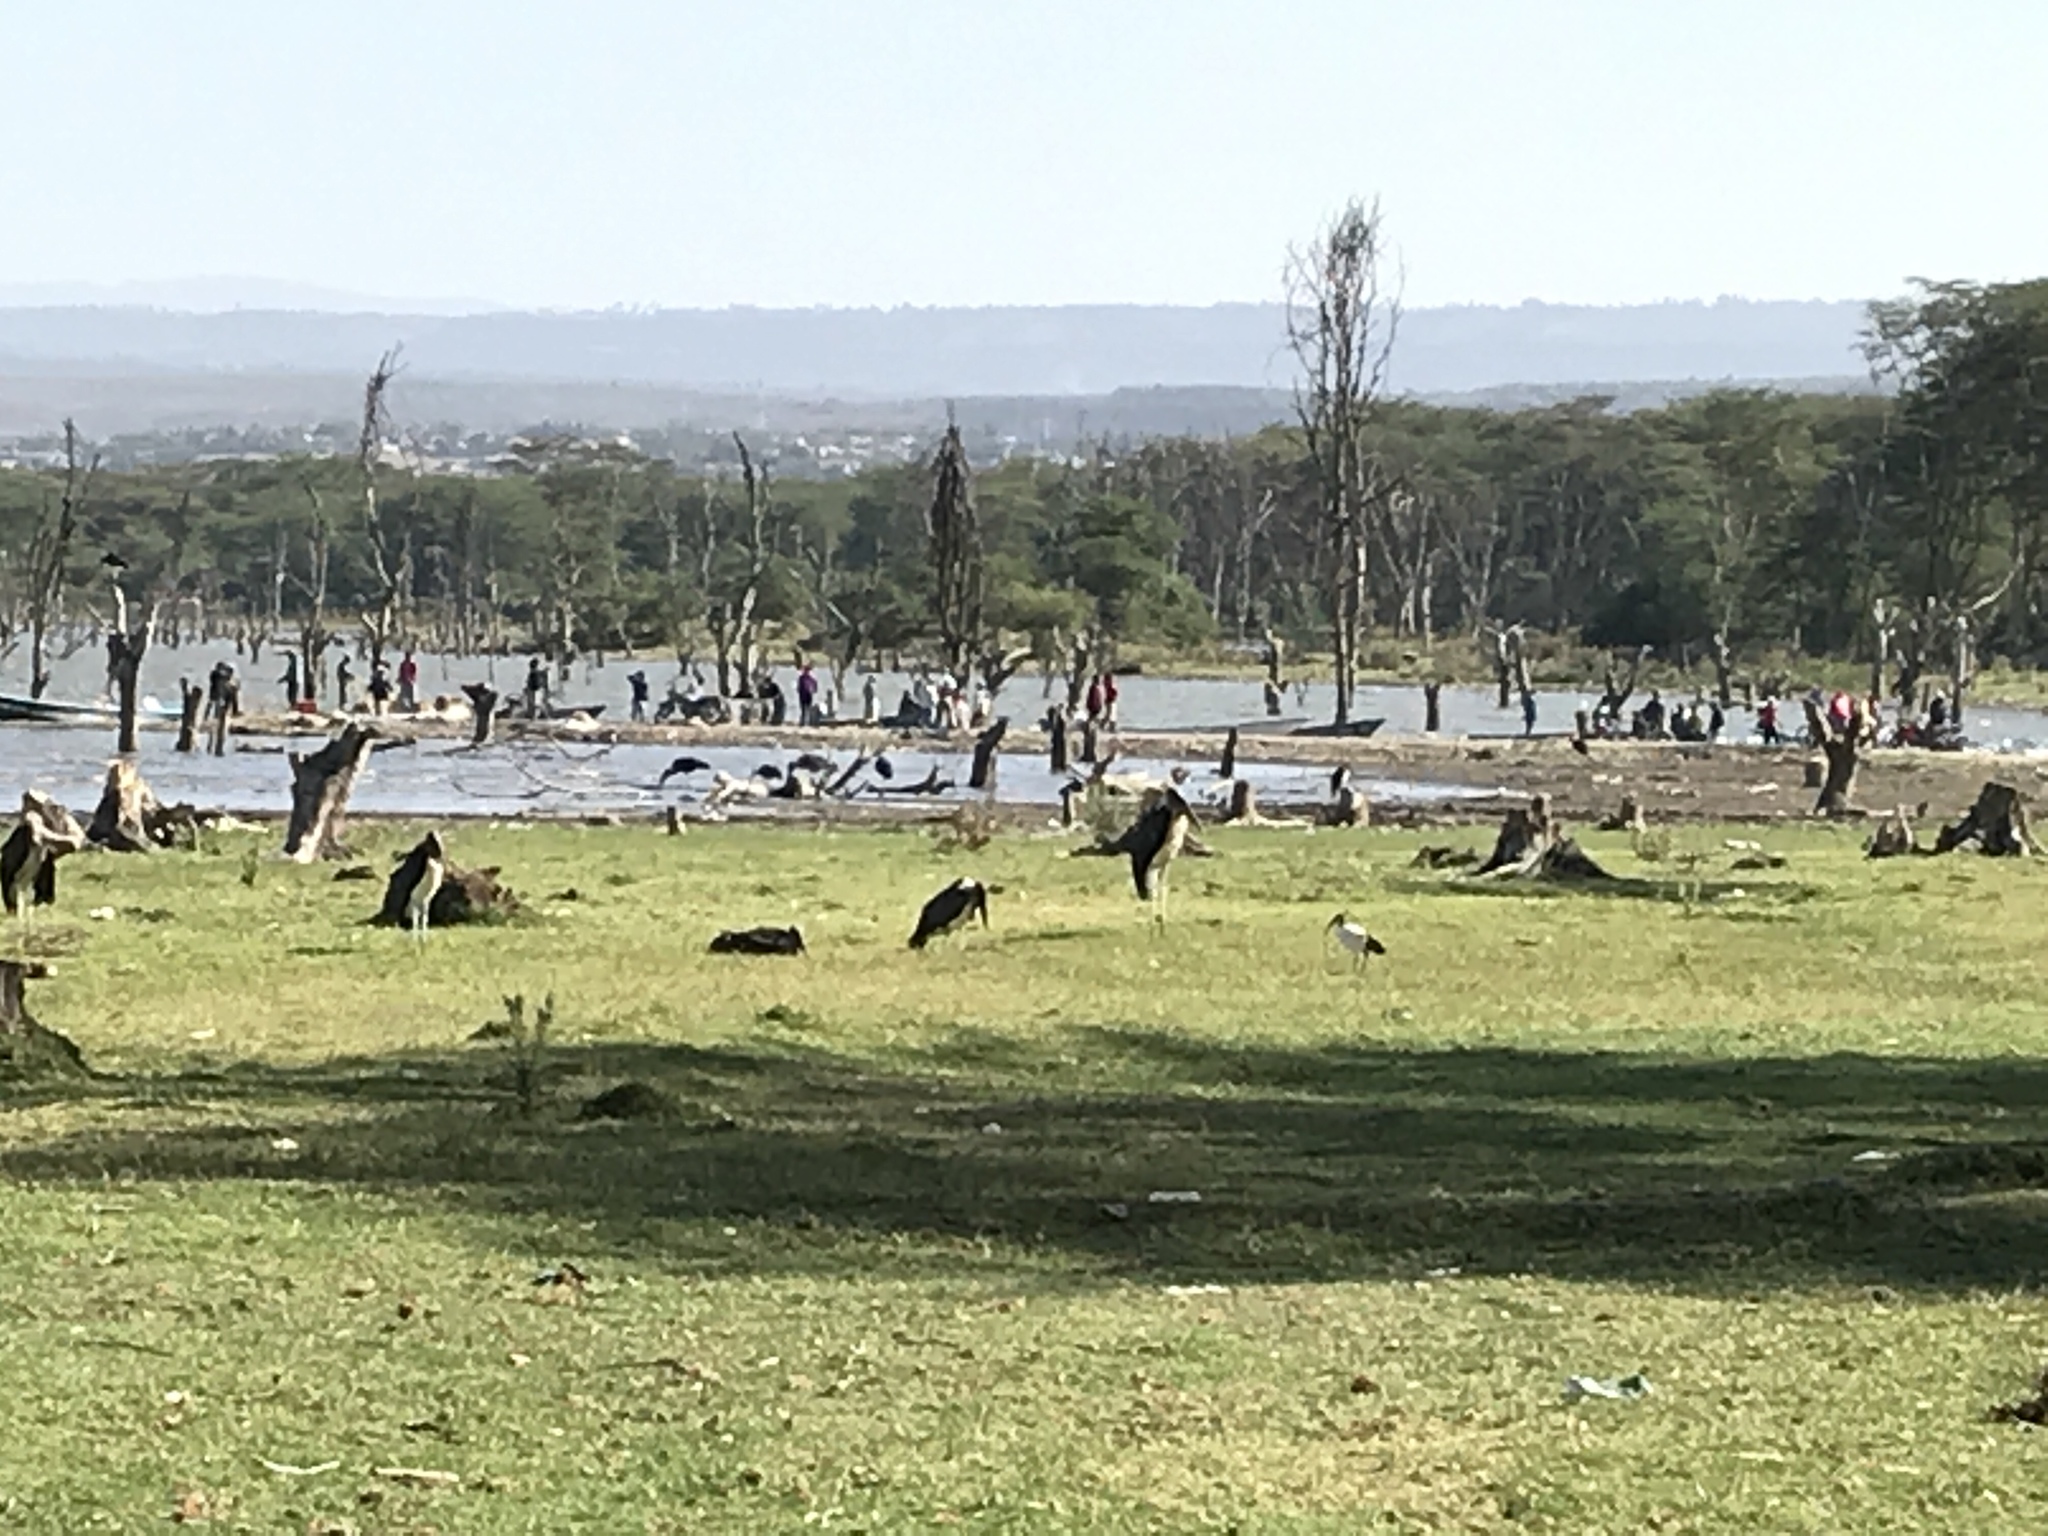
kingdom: Animalia
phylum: Chordata
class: Aves
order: Pelecaniformes
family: Threskiornithidae
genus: Threskiornis
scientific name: Threskiornis aethiopicus
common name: Sacred ibis
